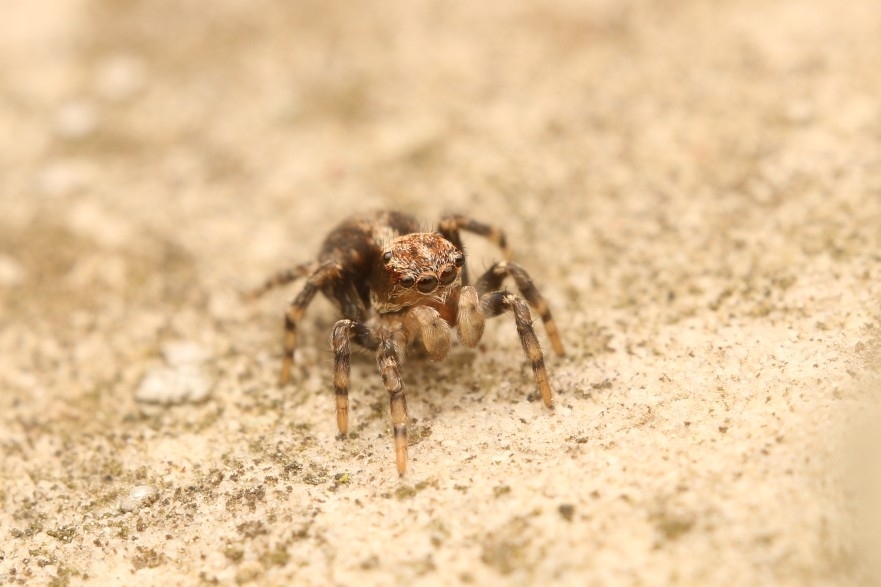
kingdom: Animalia
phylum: Arthropoda
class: Arachnida
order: Araneae
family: Salticidae
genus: Naphrys
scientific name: Naphrys pulex
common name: Flea jumping spider
